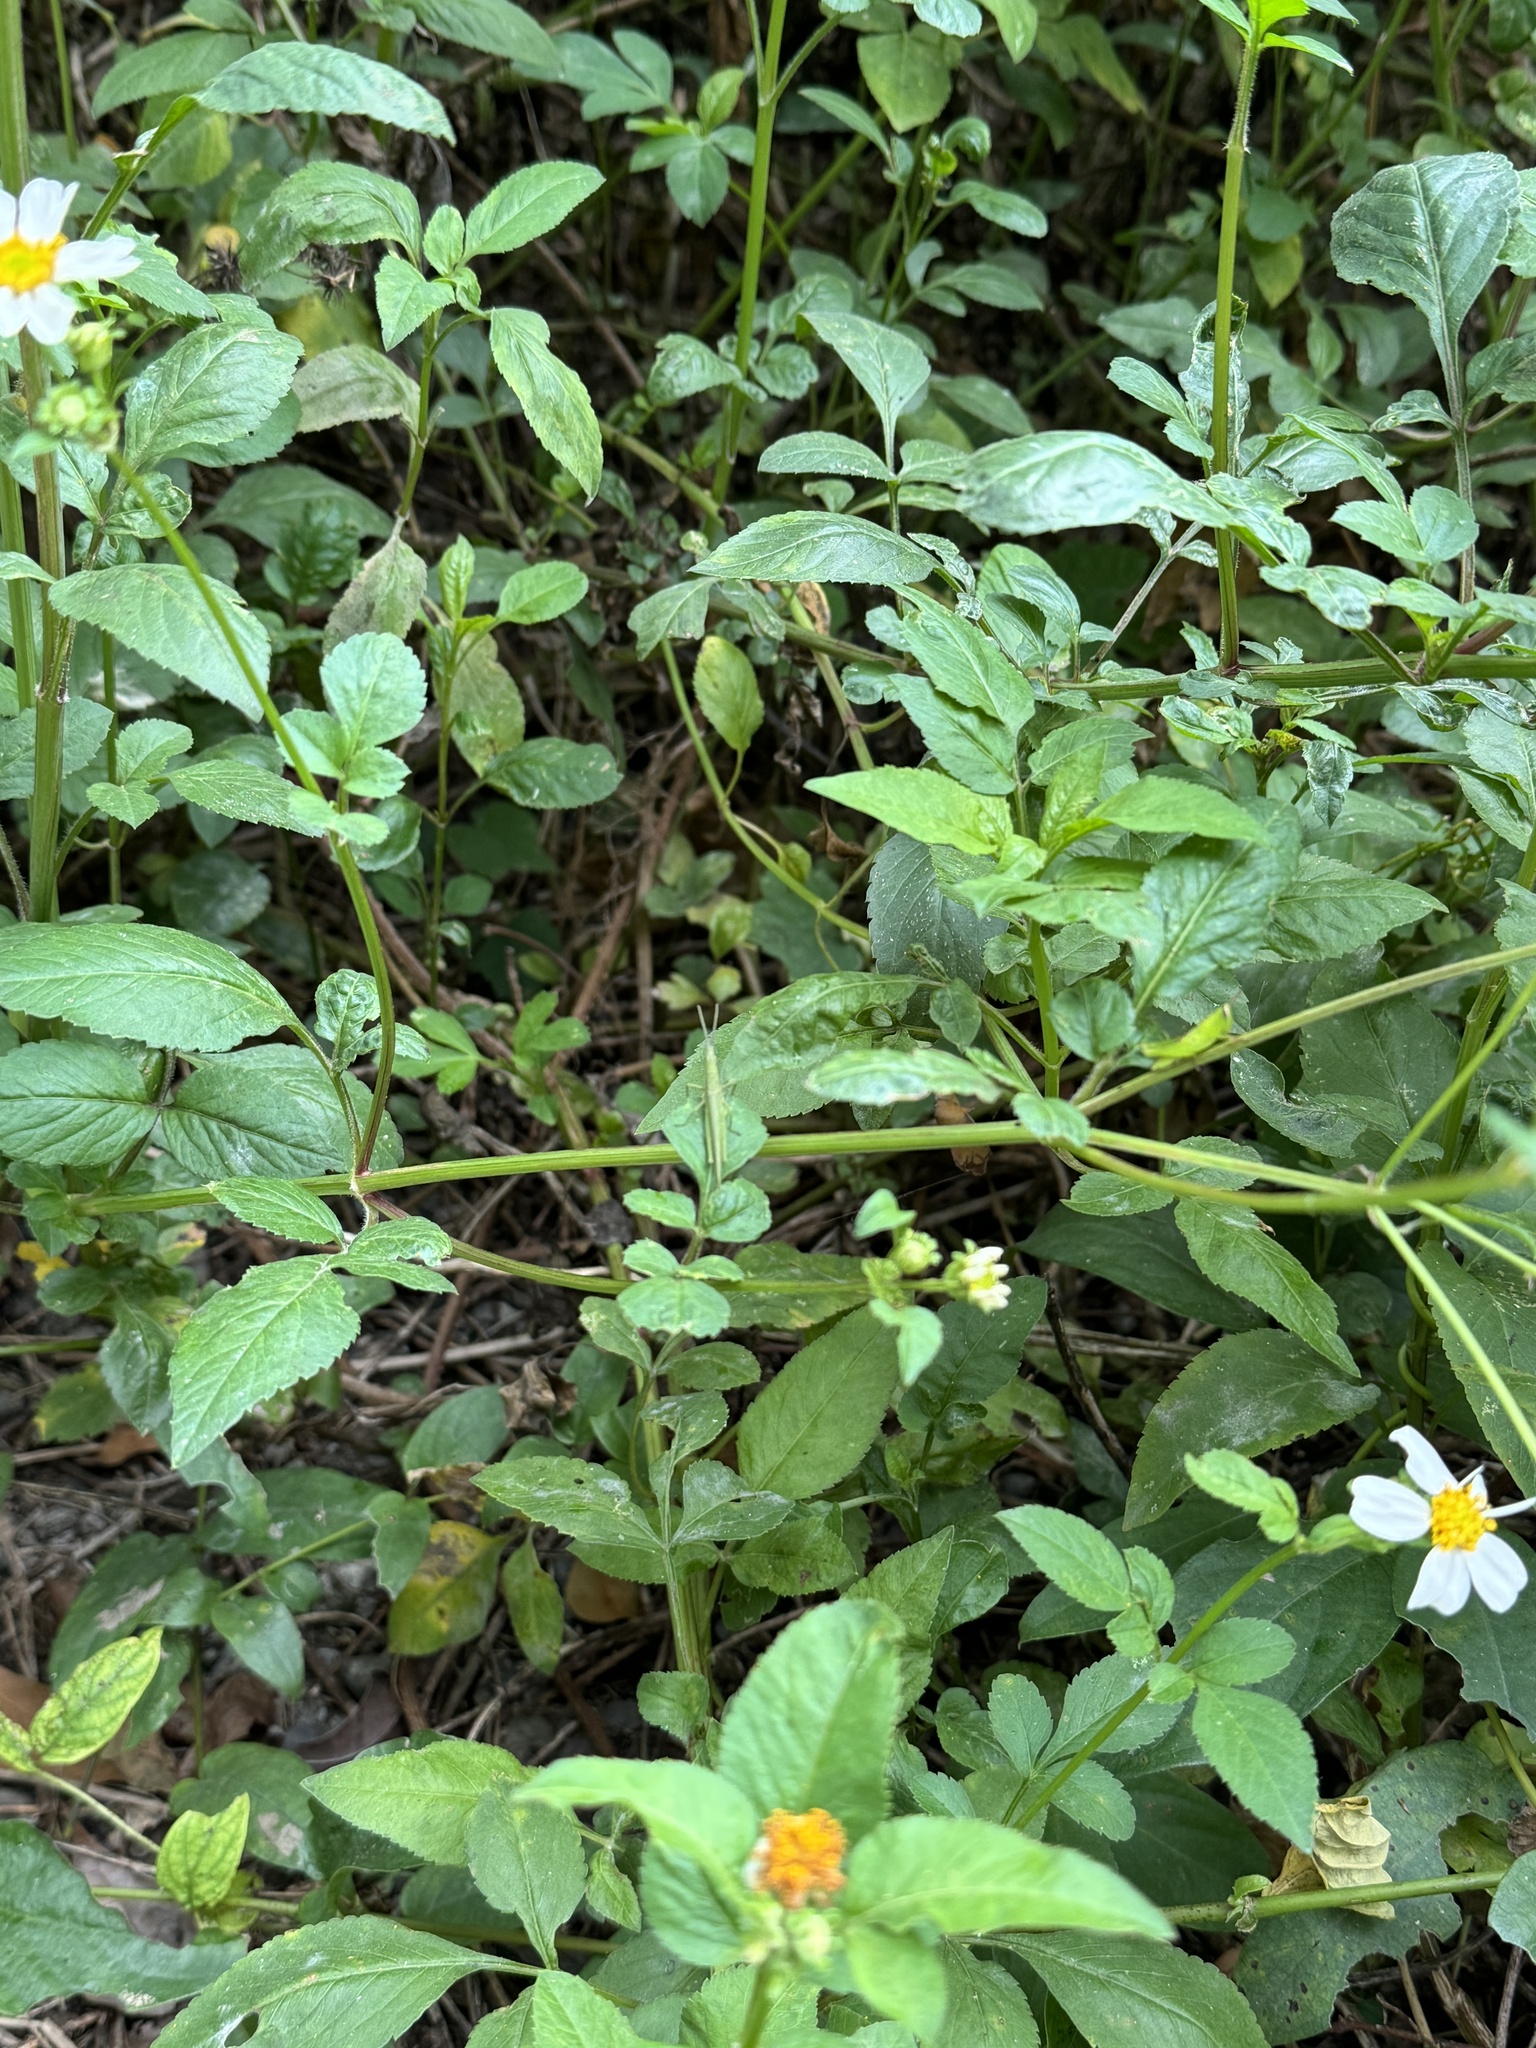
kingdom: Plantae
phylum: Tracheophyta
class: Magnoliopsida
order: Asterales
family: Asteraceae
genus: Bidens
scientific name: Bidens alba
